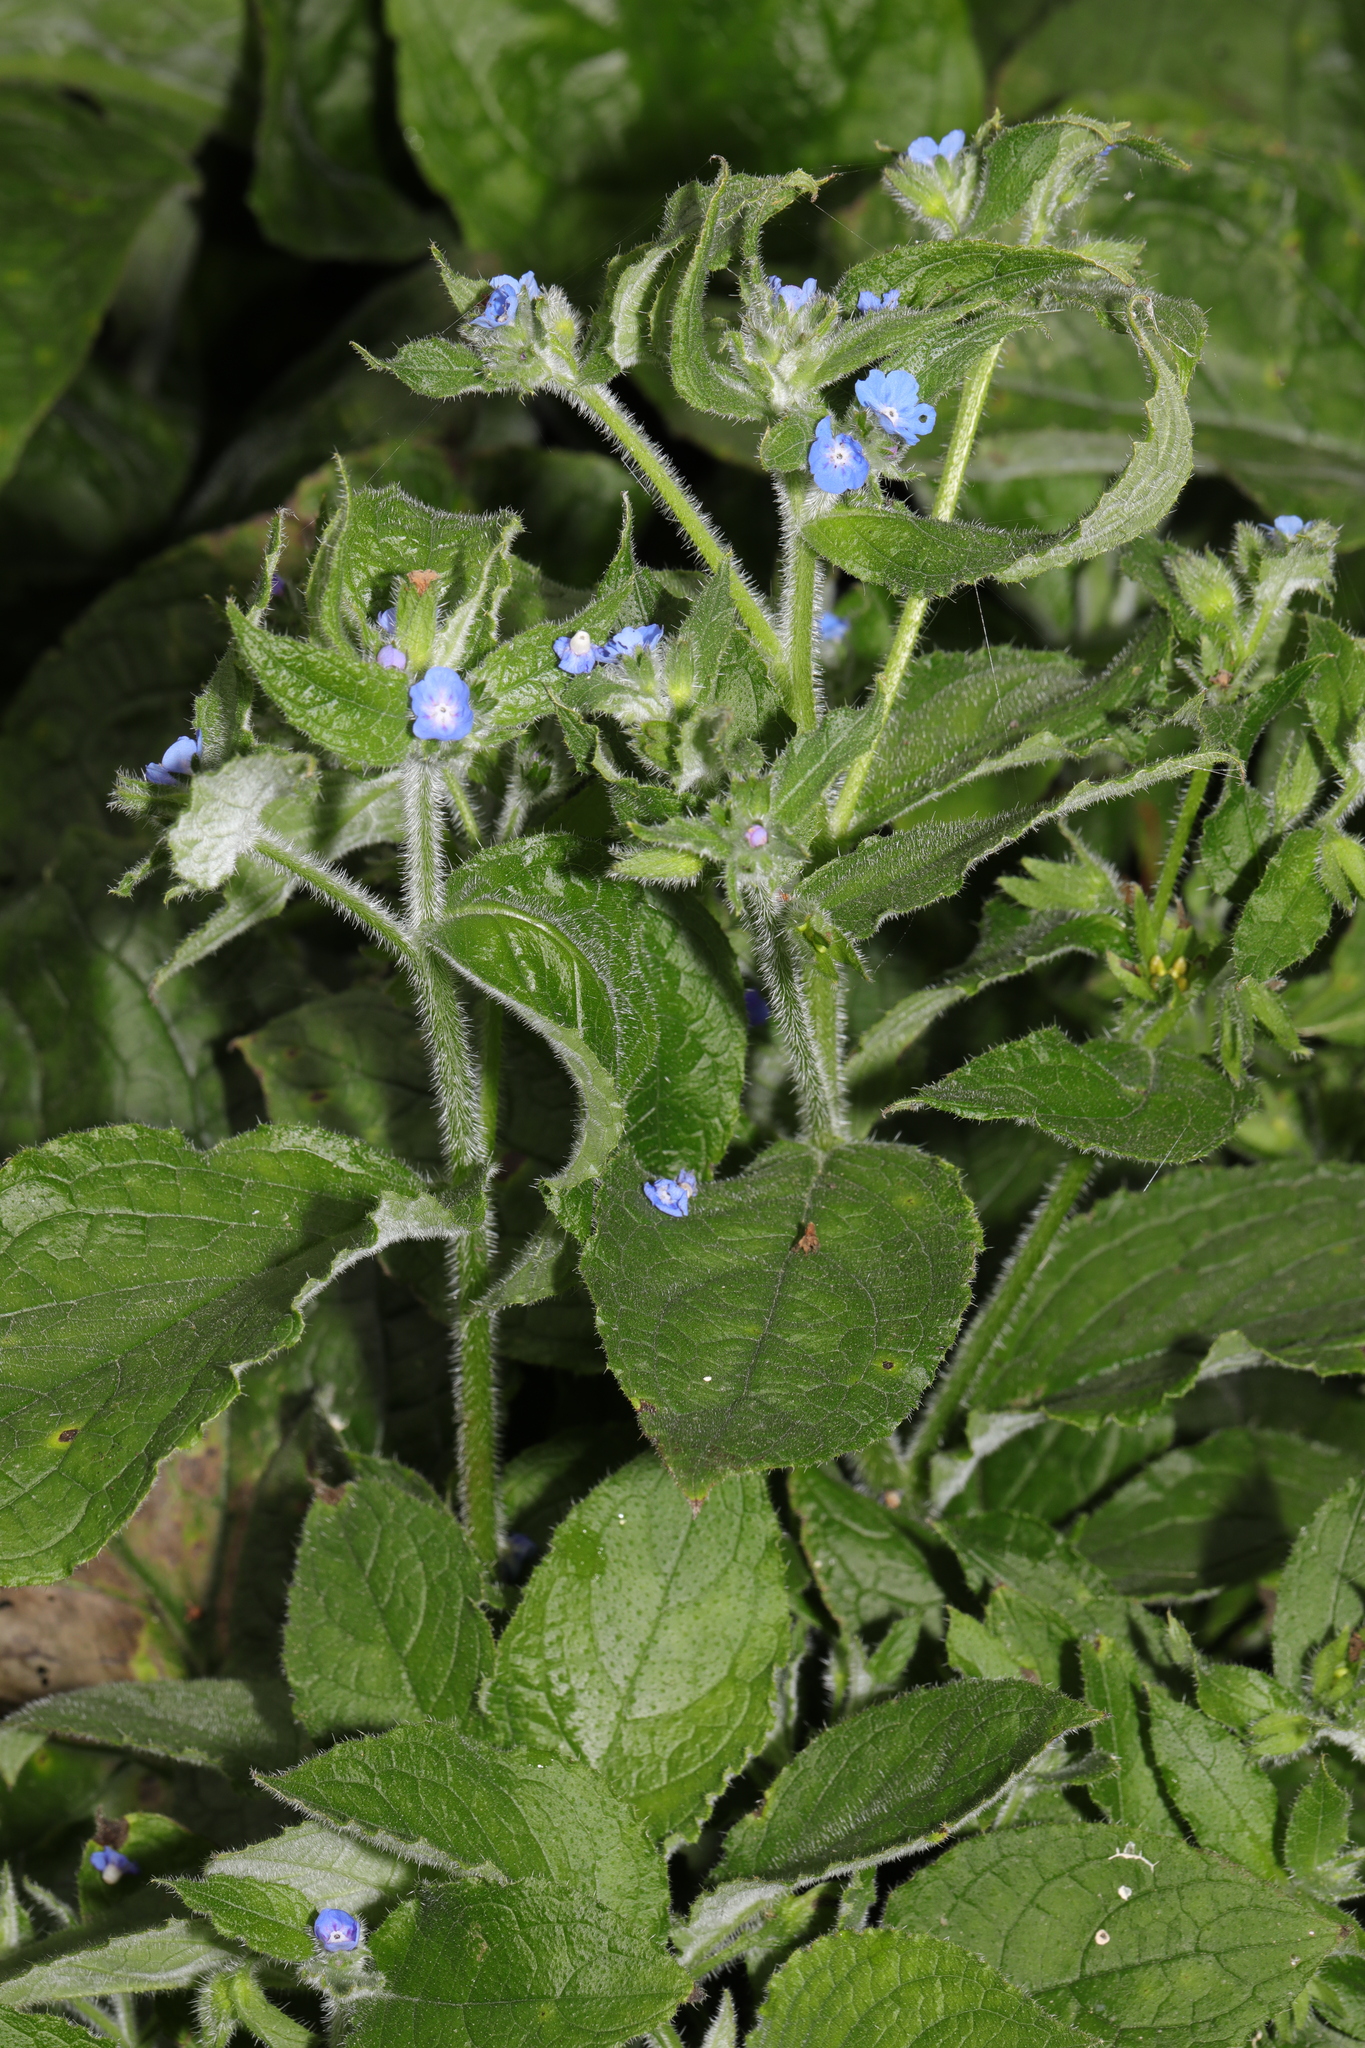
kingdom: Plantae
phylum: Tracheophyta
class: Magnoliopsida
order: Boraginales
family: Boraginaceae
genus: Pentaglottis
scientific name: Pentaglottis sempervirens
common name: Green alkanet
